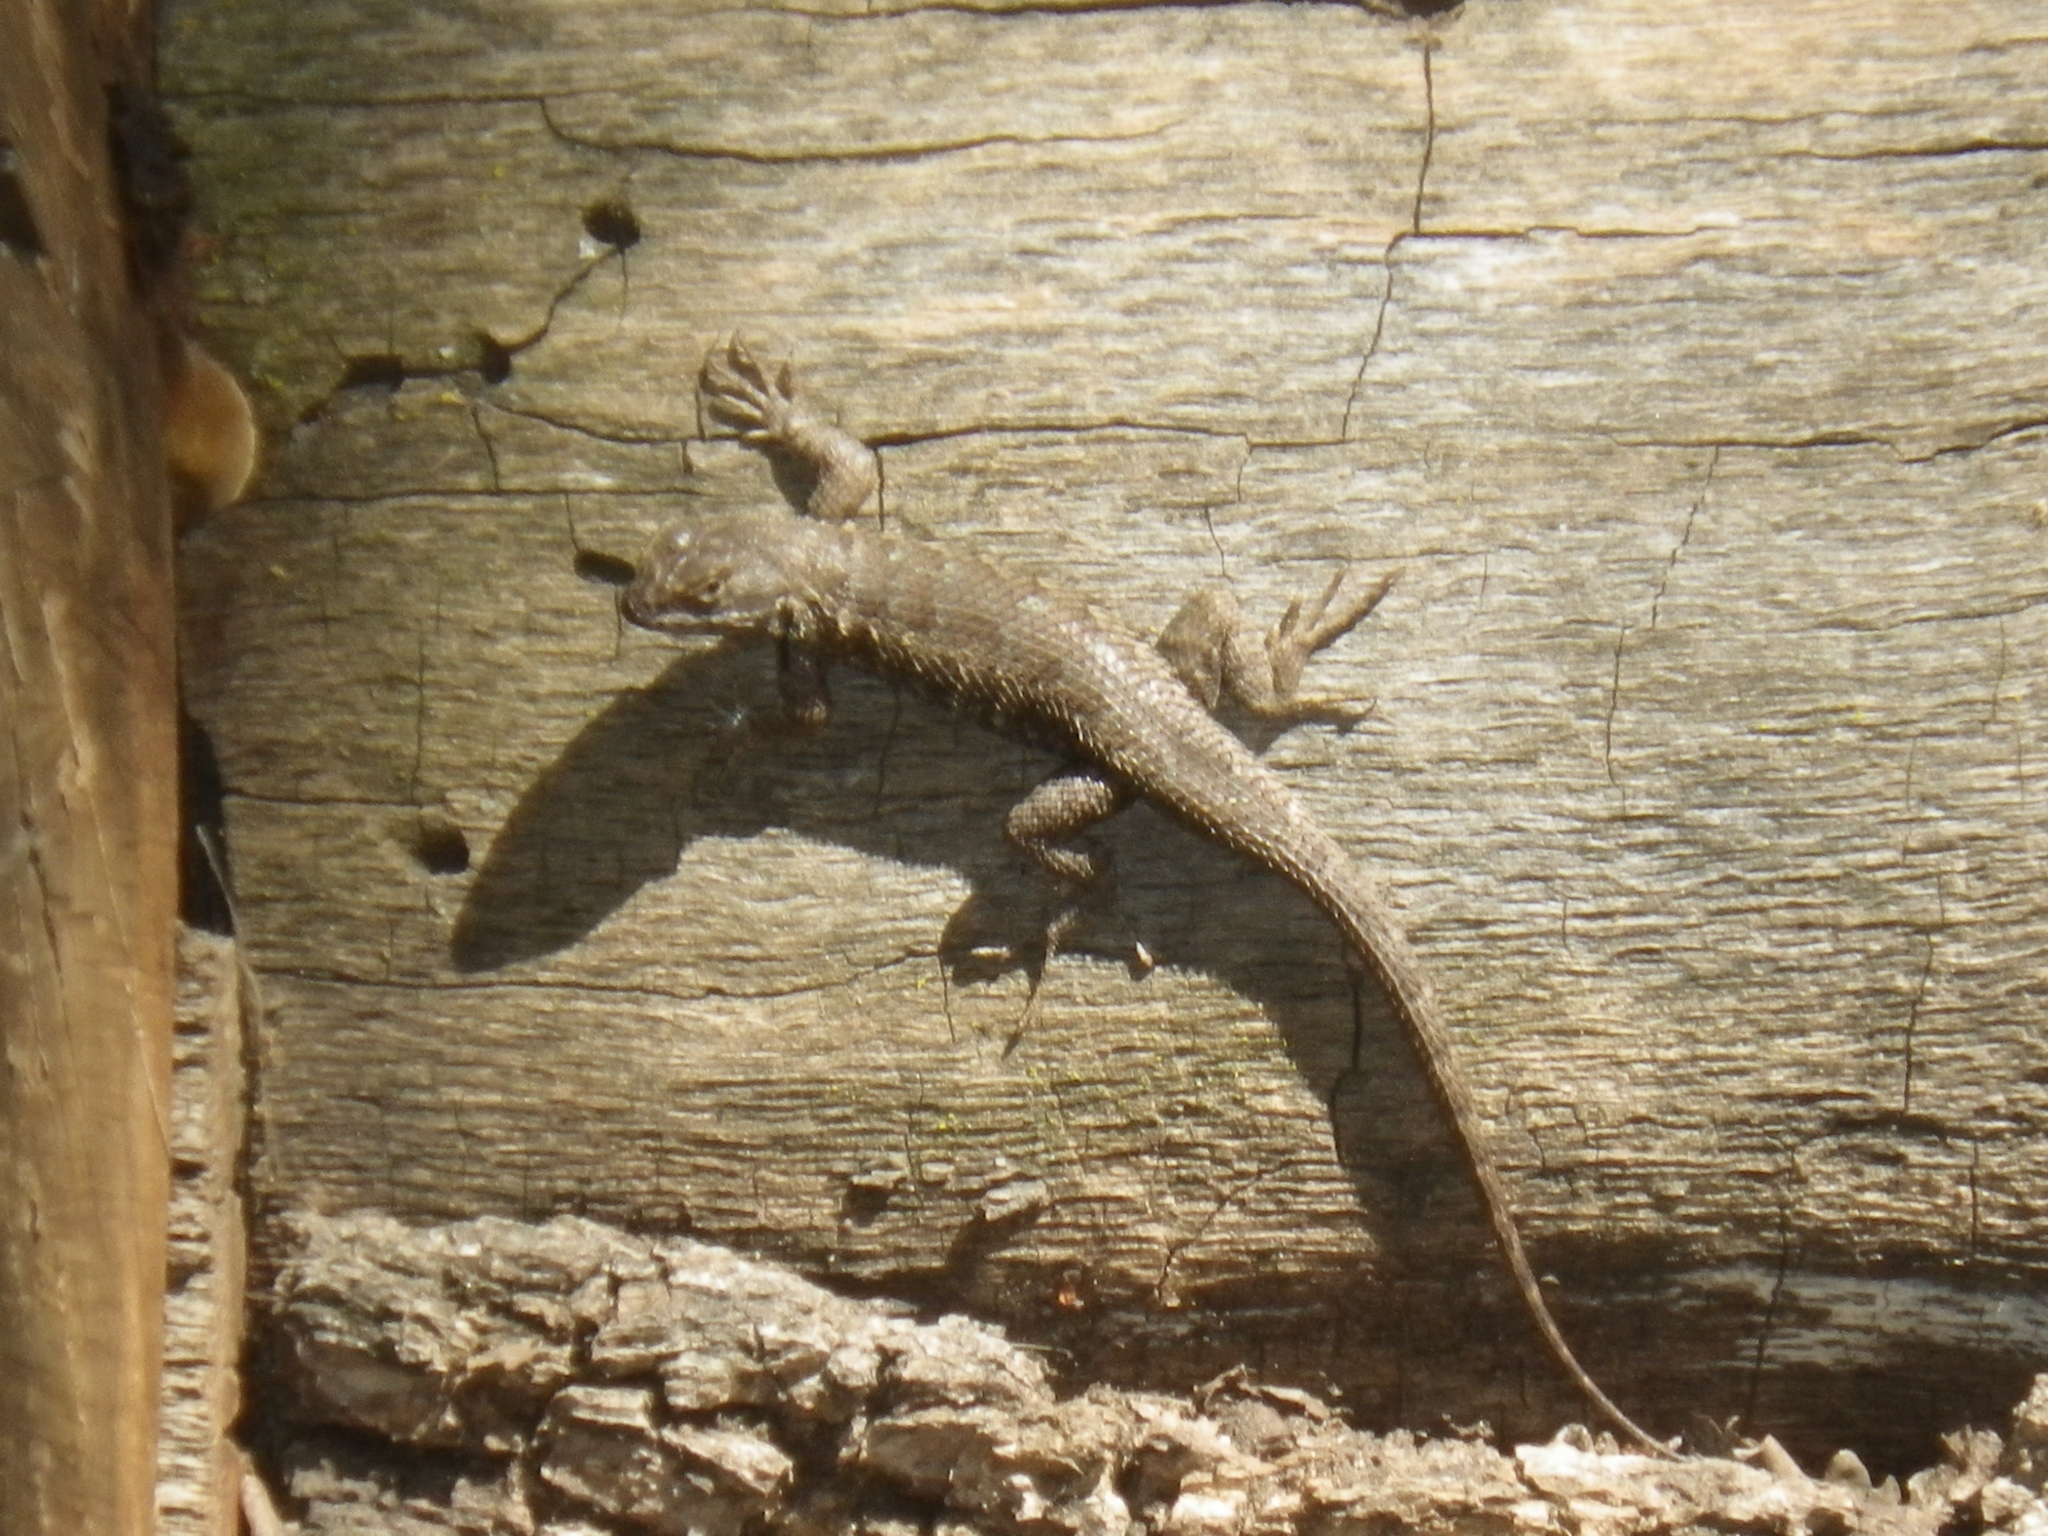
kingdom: Animalia
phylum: Chordata
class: Squamata
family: Phrynosomatidae
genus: Sceloporus
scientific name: Sceloporus occidentalis
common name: Western fence lizard
